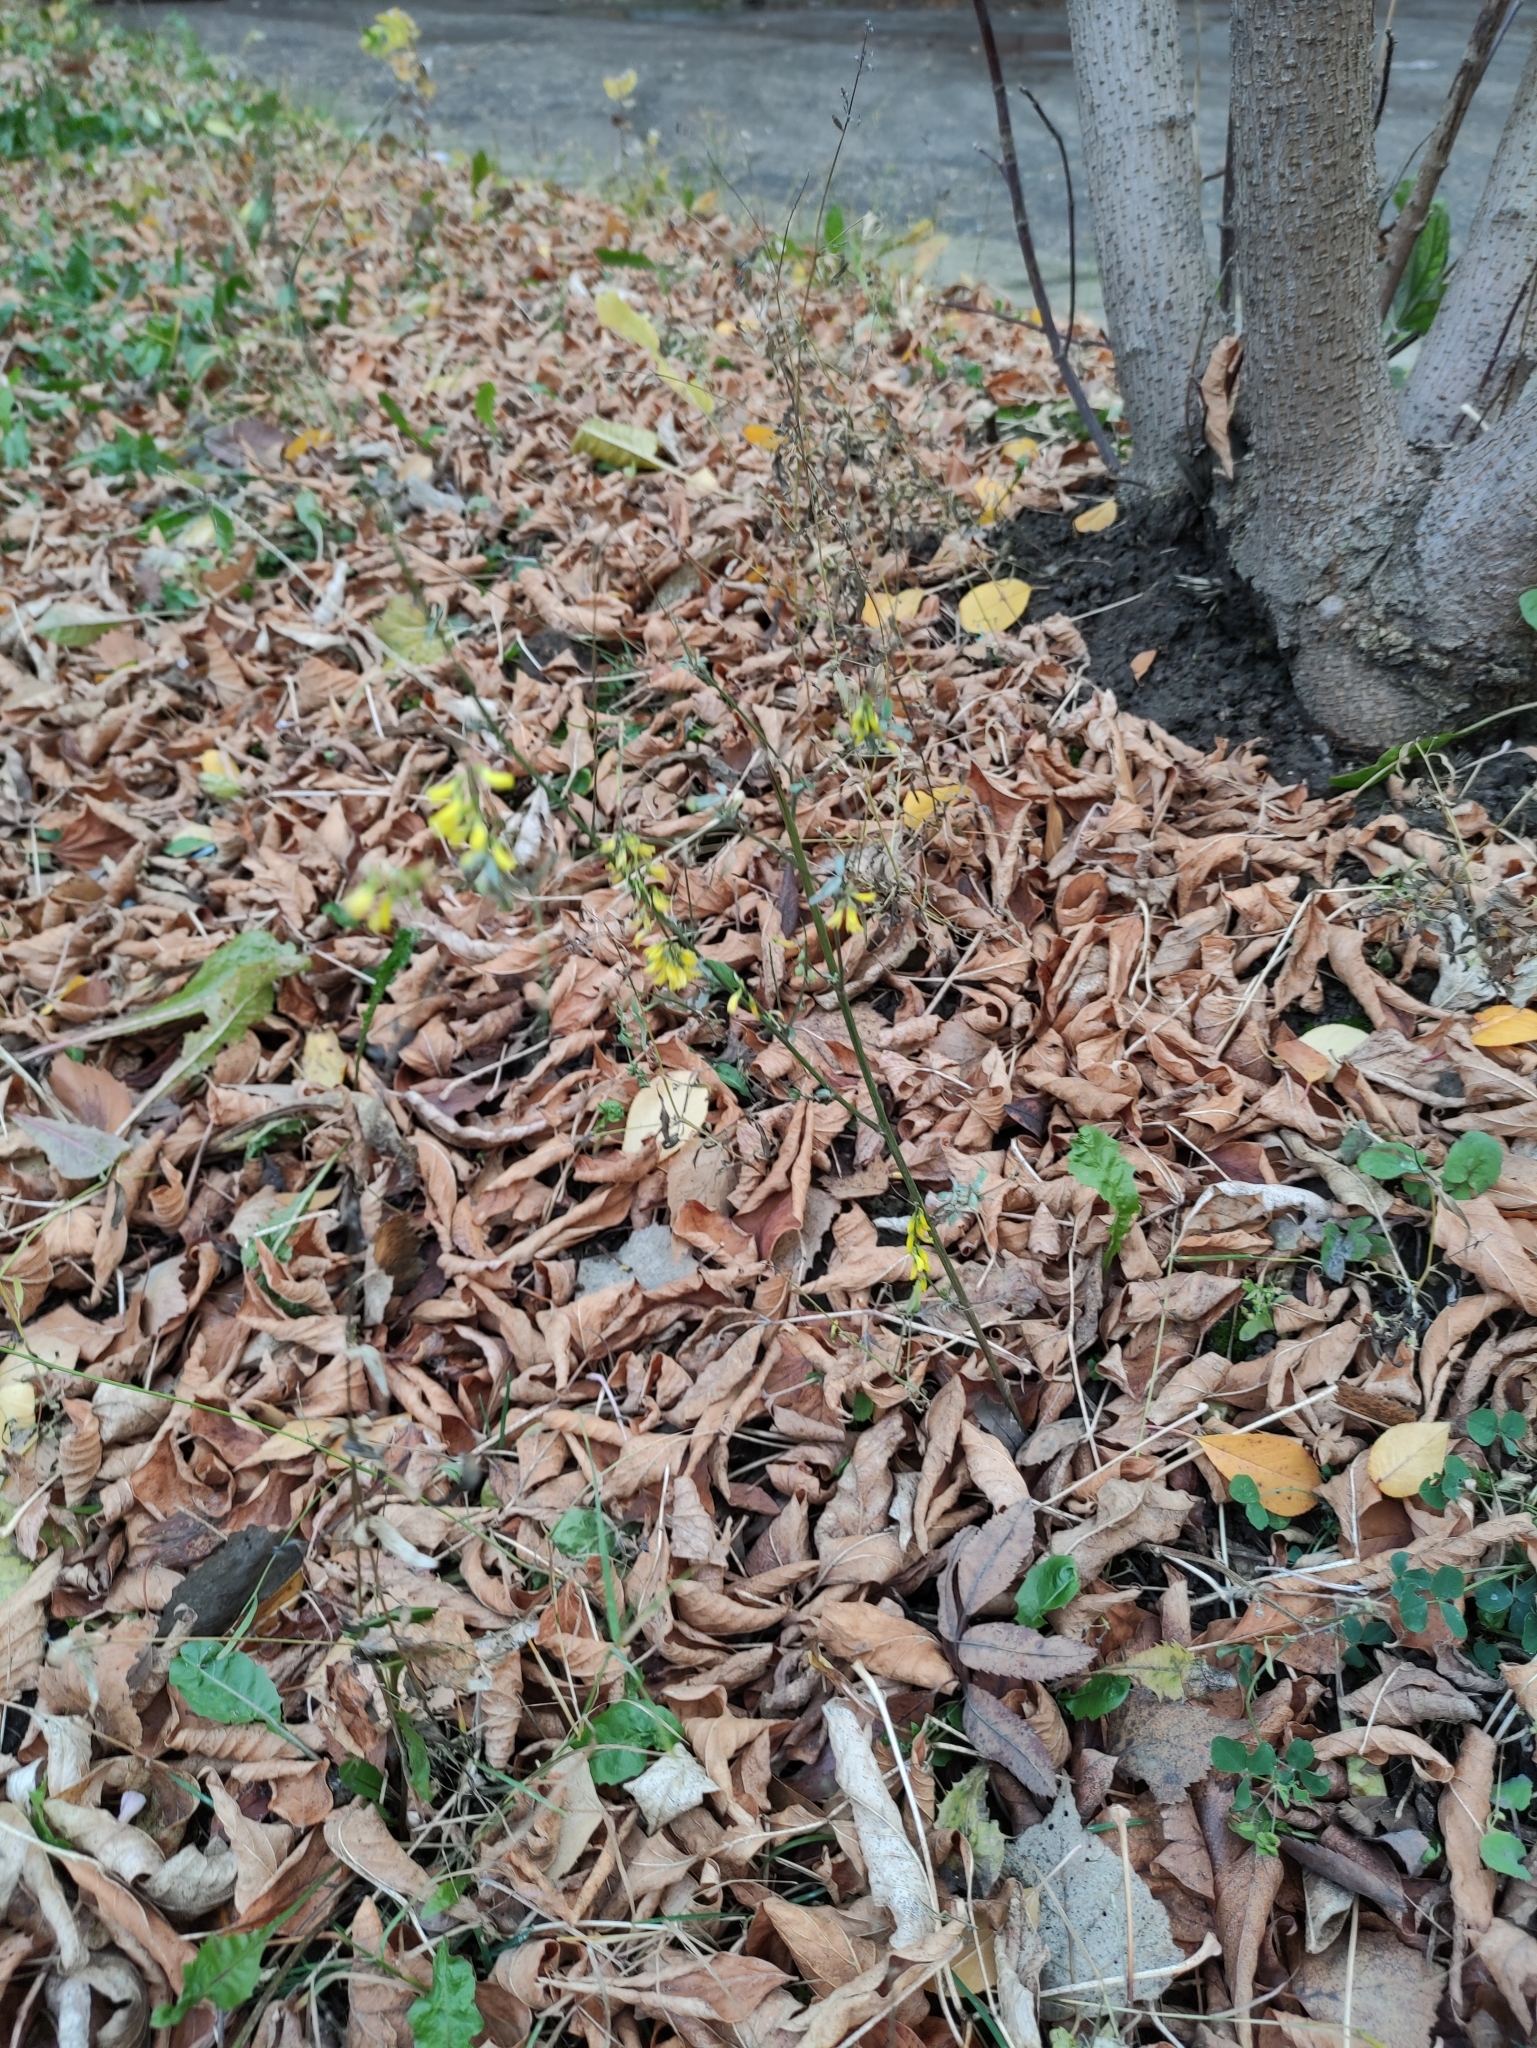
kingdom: Plantae
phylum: Tracheophyta
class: Magnoliopsida
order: Fabales
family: Fabaceae
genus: Melilotus
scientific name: Melilotus officinalis
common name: Sweetclover
